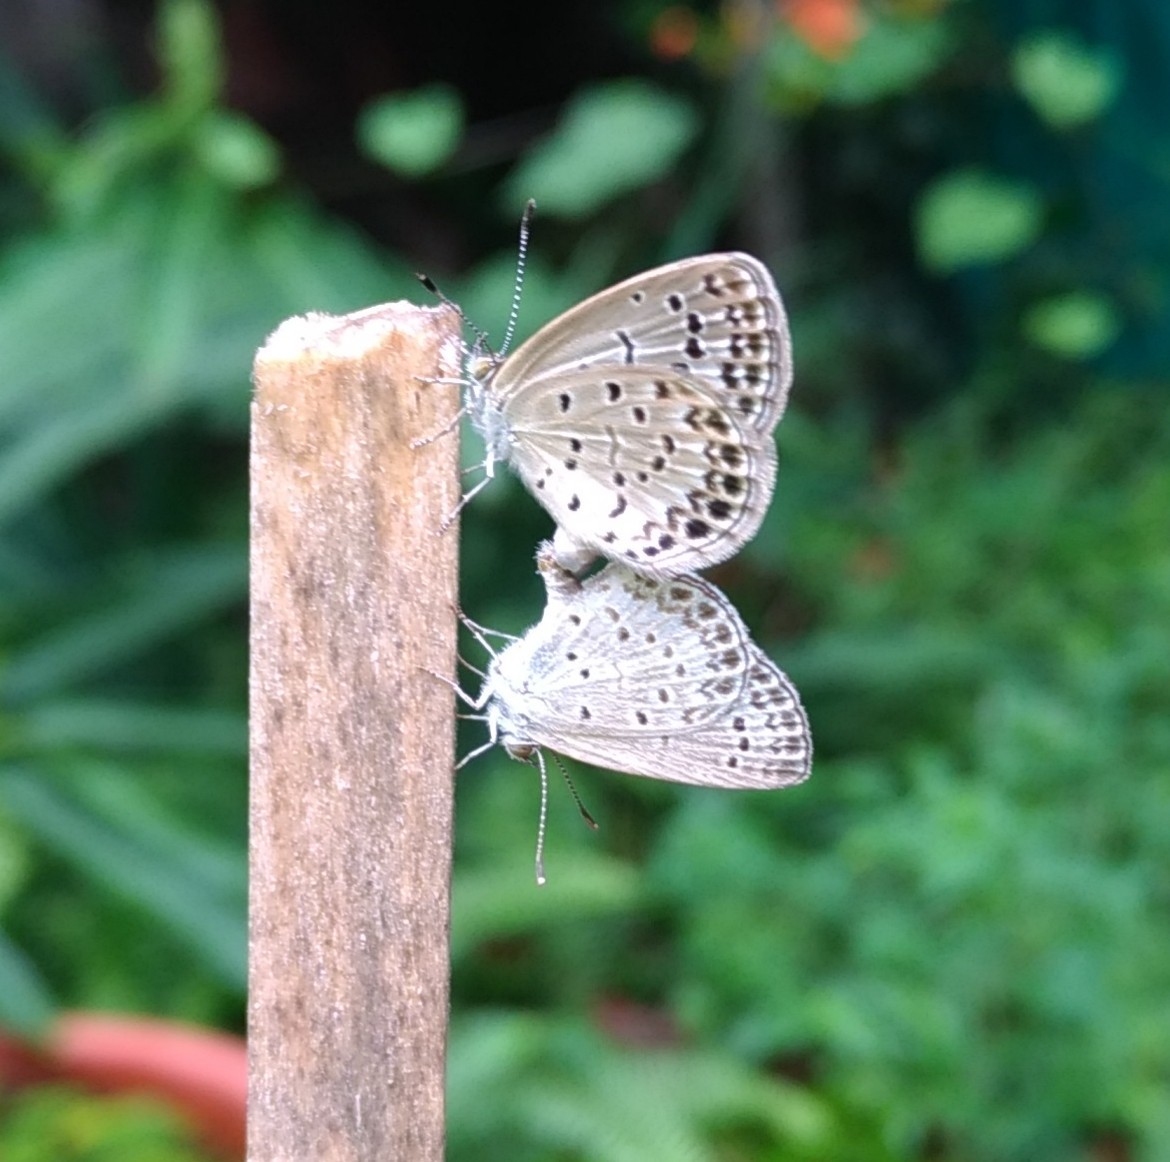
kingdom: Animalia
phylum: Arthropoda
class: Insecta
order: Lepidoptera
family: Lycaenidae
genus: Pseudozizeeria
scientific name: Pseudozizeeria maha
